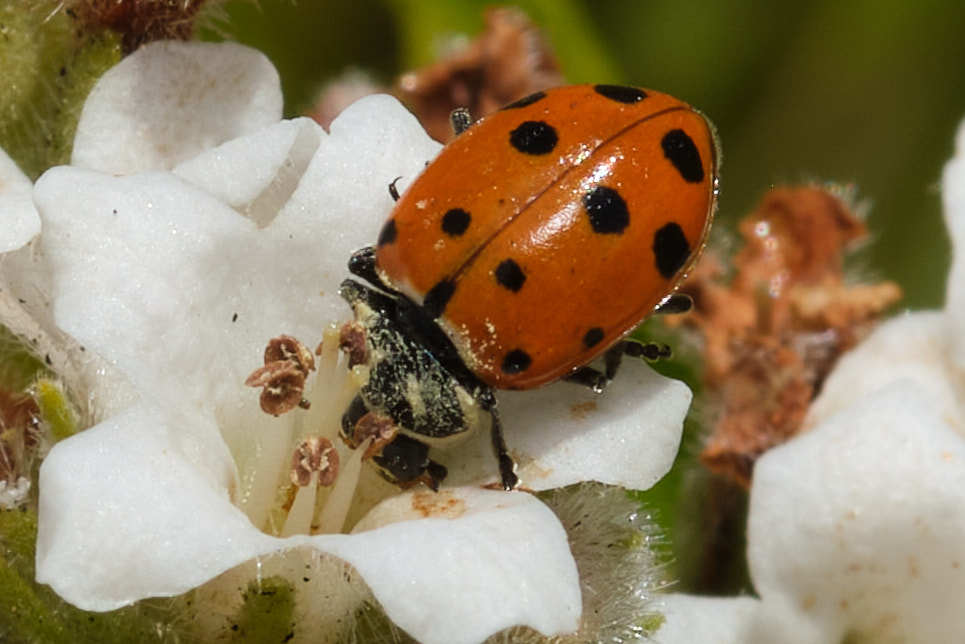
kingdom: Animalia
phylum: Arthropoda
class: Insecta
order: Coleoptera
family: Coccinellidae
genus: Hippodamia
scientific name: Hippodamia convergens
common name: Convergent lady beetle
